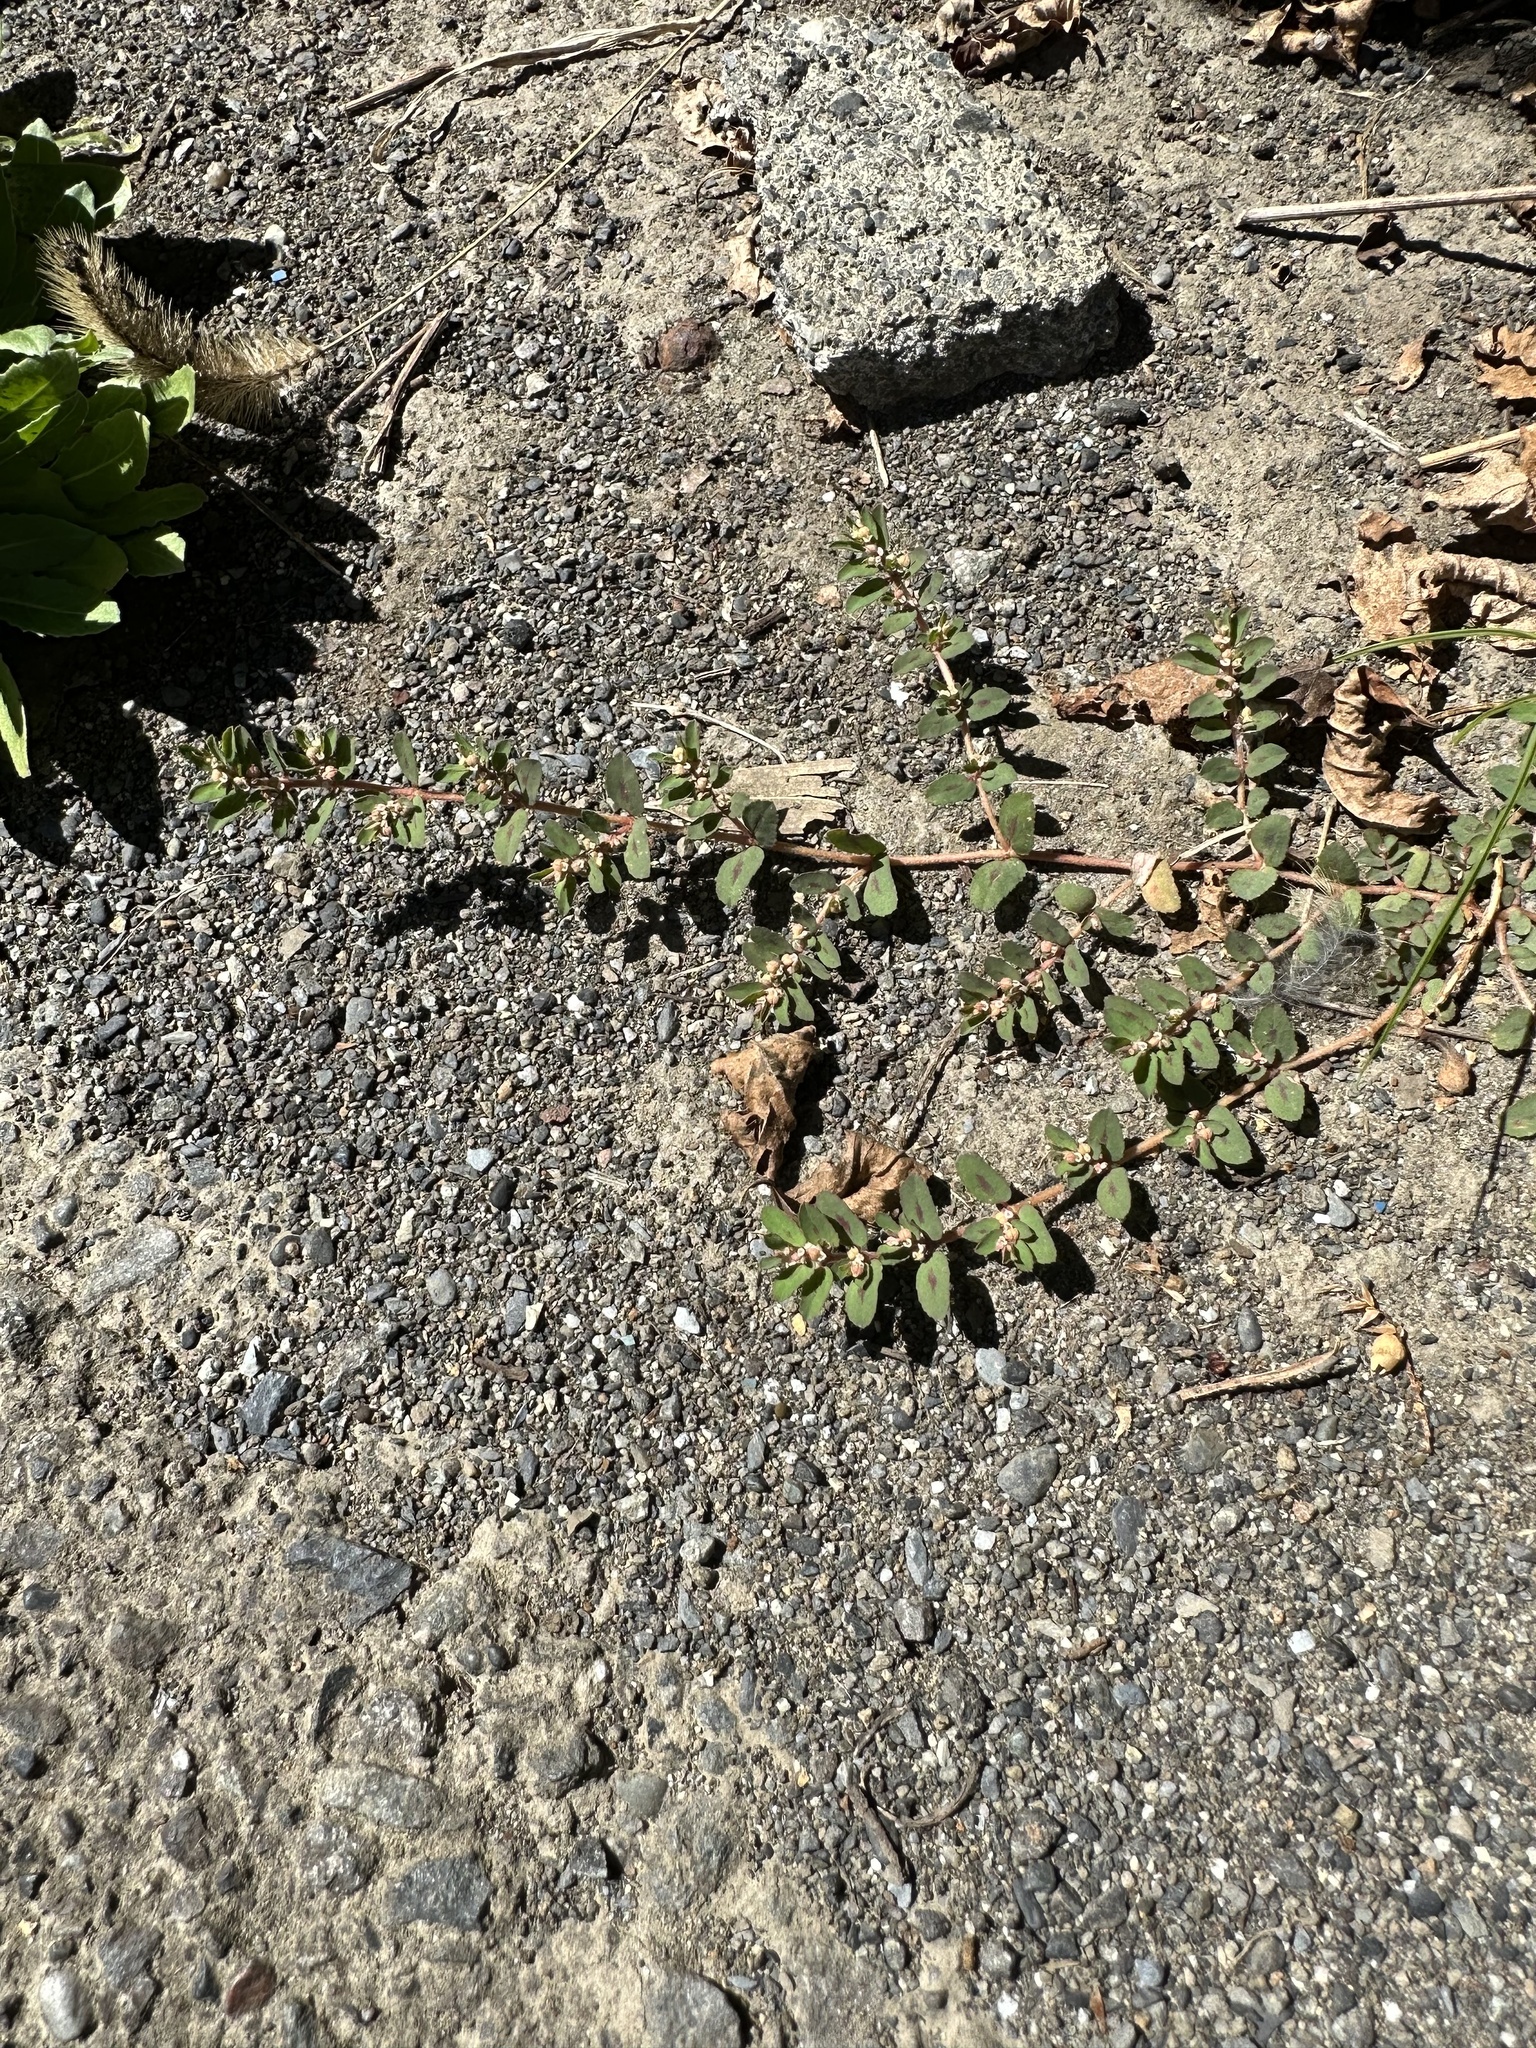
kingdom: Plantae
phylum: Tracheophyta
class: Magnoliopsida
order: Malpighiales
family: Euphorbiaceae
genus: Euphorbia
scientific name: Euphorbia maculata
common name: Spotted spurge
